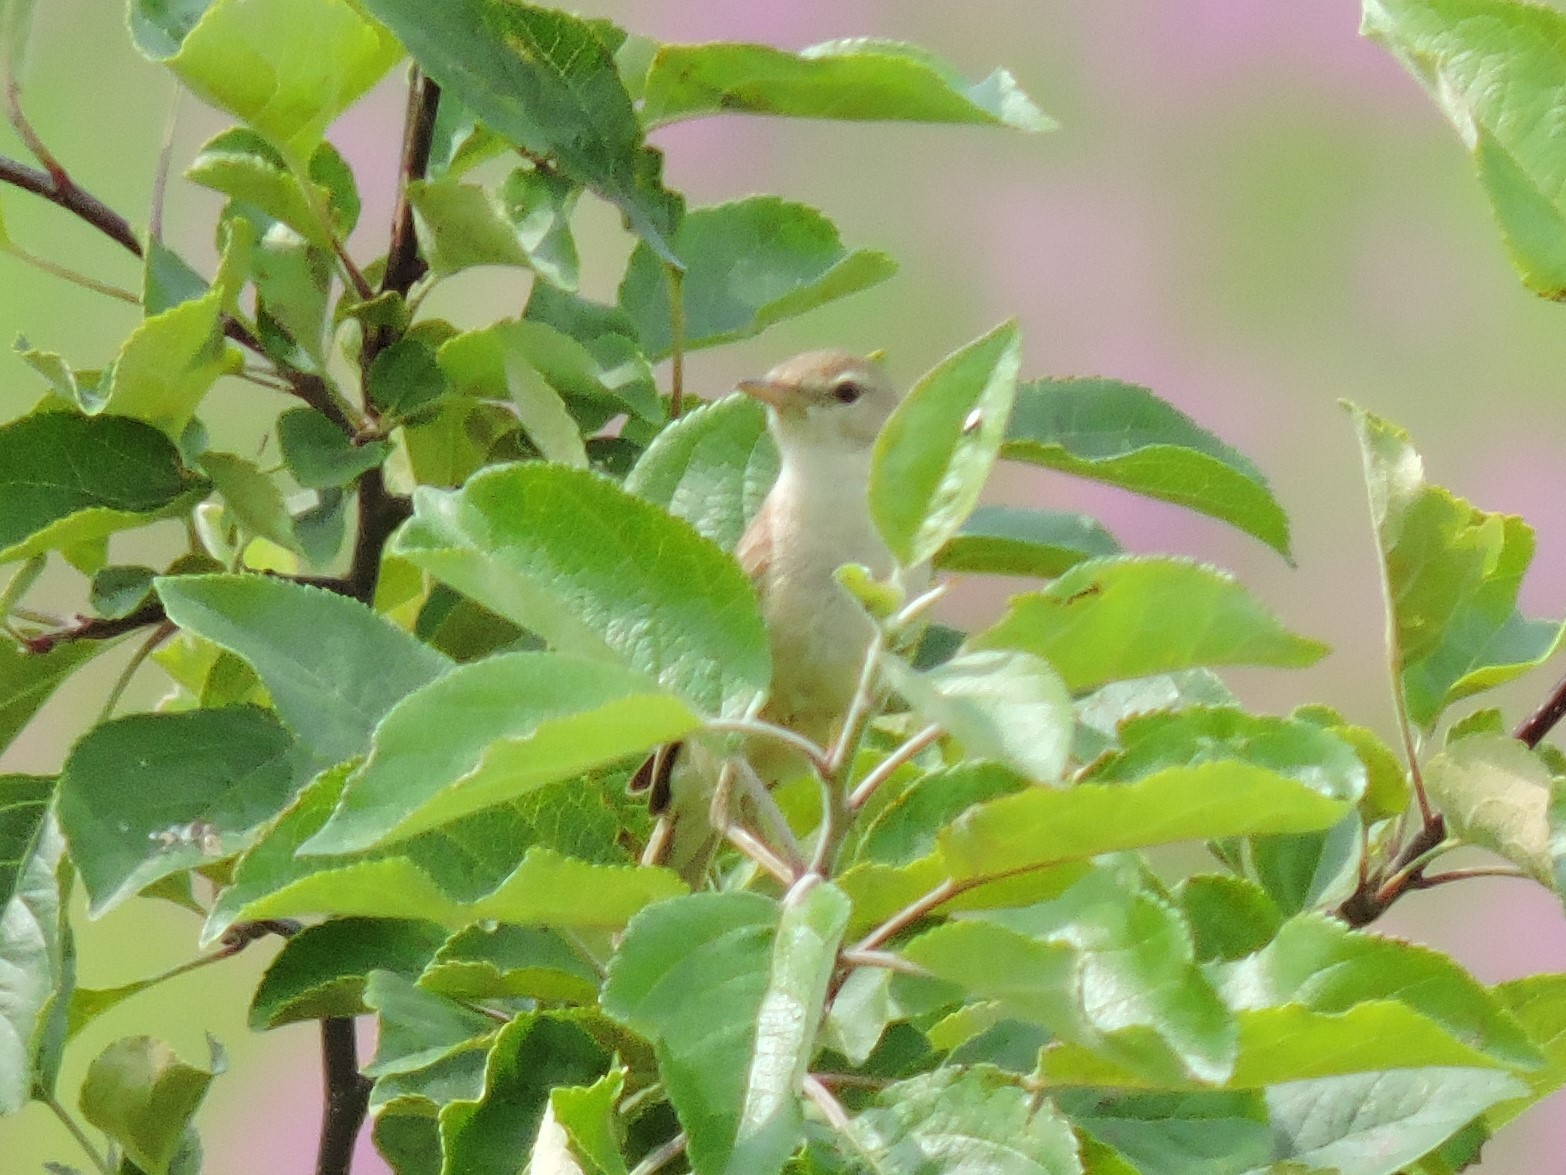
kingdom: Animalia
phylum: Chordata
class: Aves
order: Passeriformes
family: Acrocephalidae
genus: Iduna
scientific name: Iduna caligata
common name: Booted warbler
